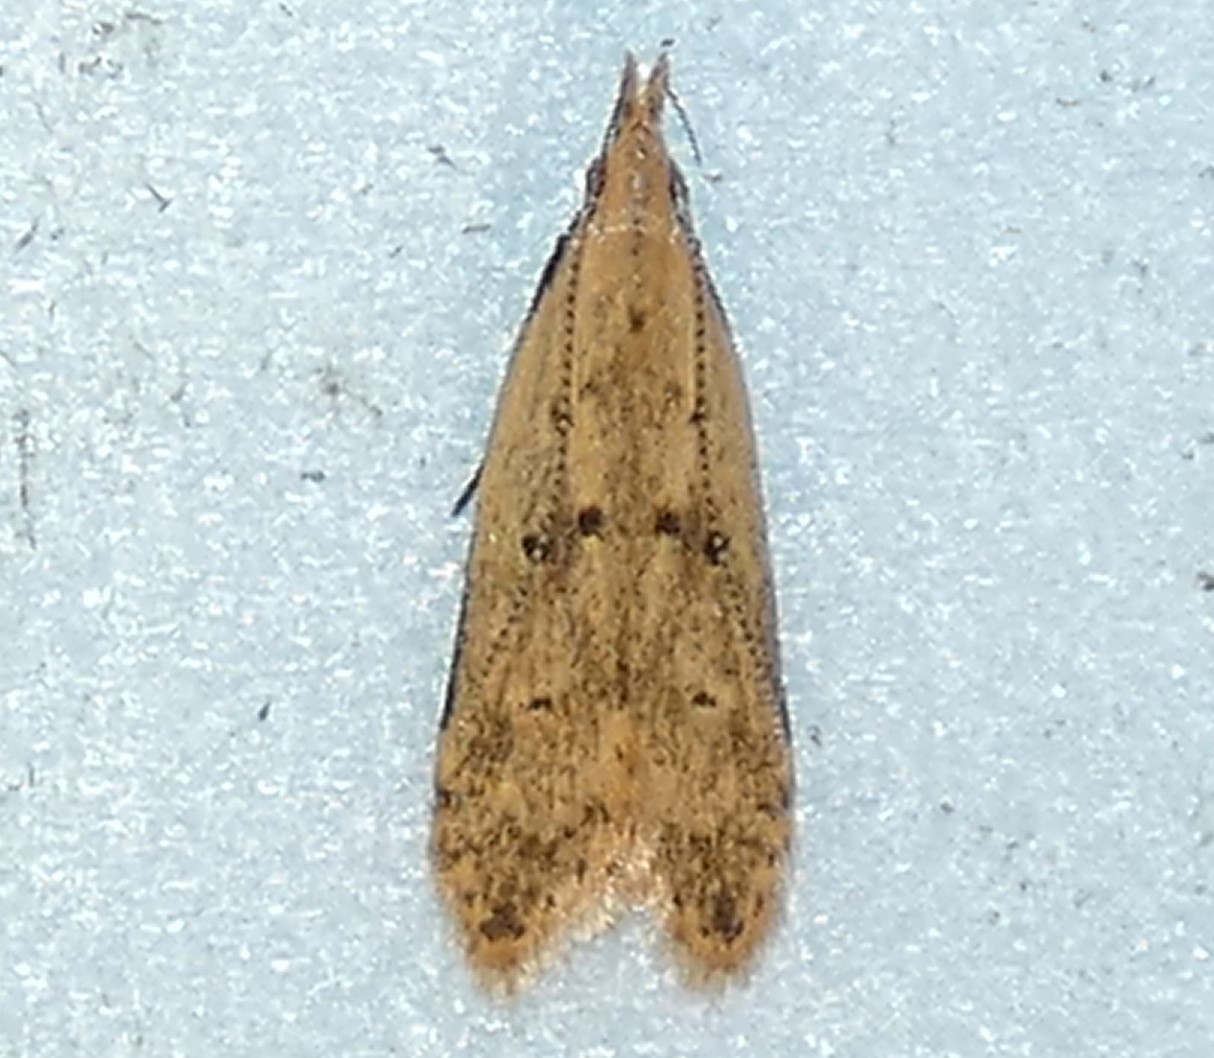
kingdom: Animalia
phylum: Arthropoda
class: Insecta
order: Lepidoptera
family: Gelechiidae
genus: Dichomeris
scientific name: Dichomeris punctipennella
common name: Many-spotted dichomeris moth
